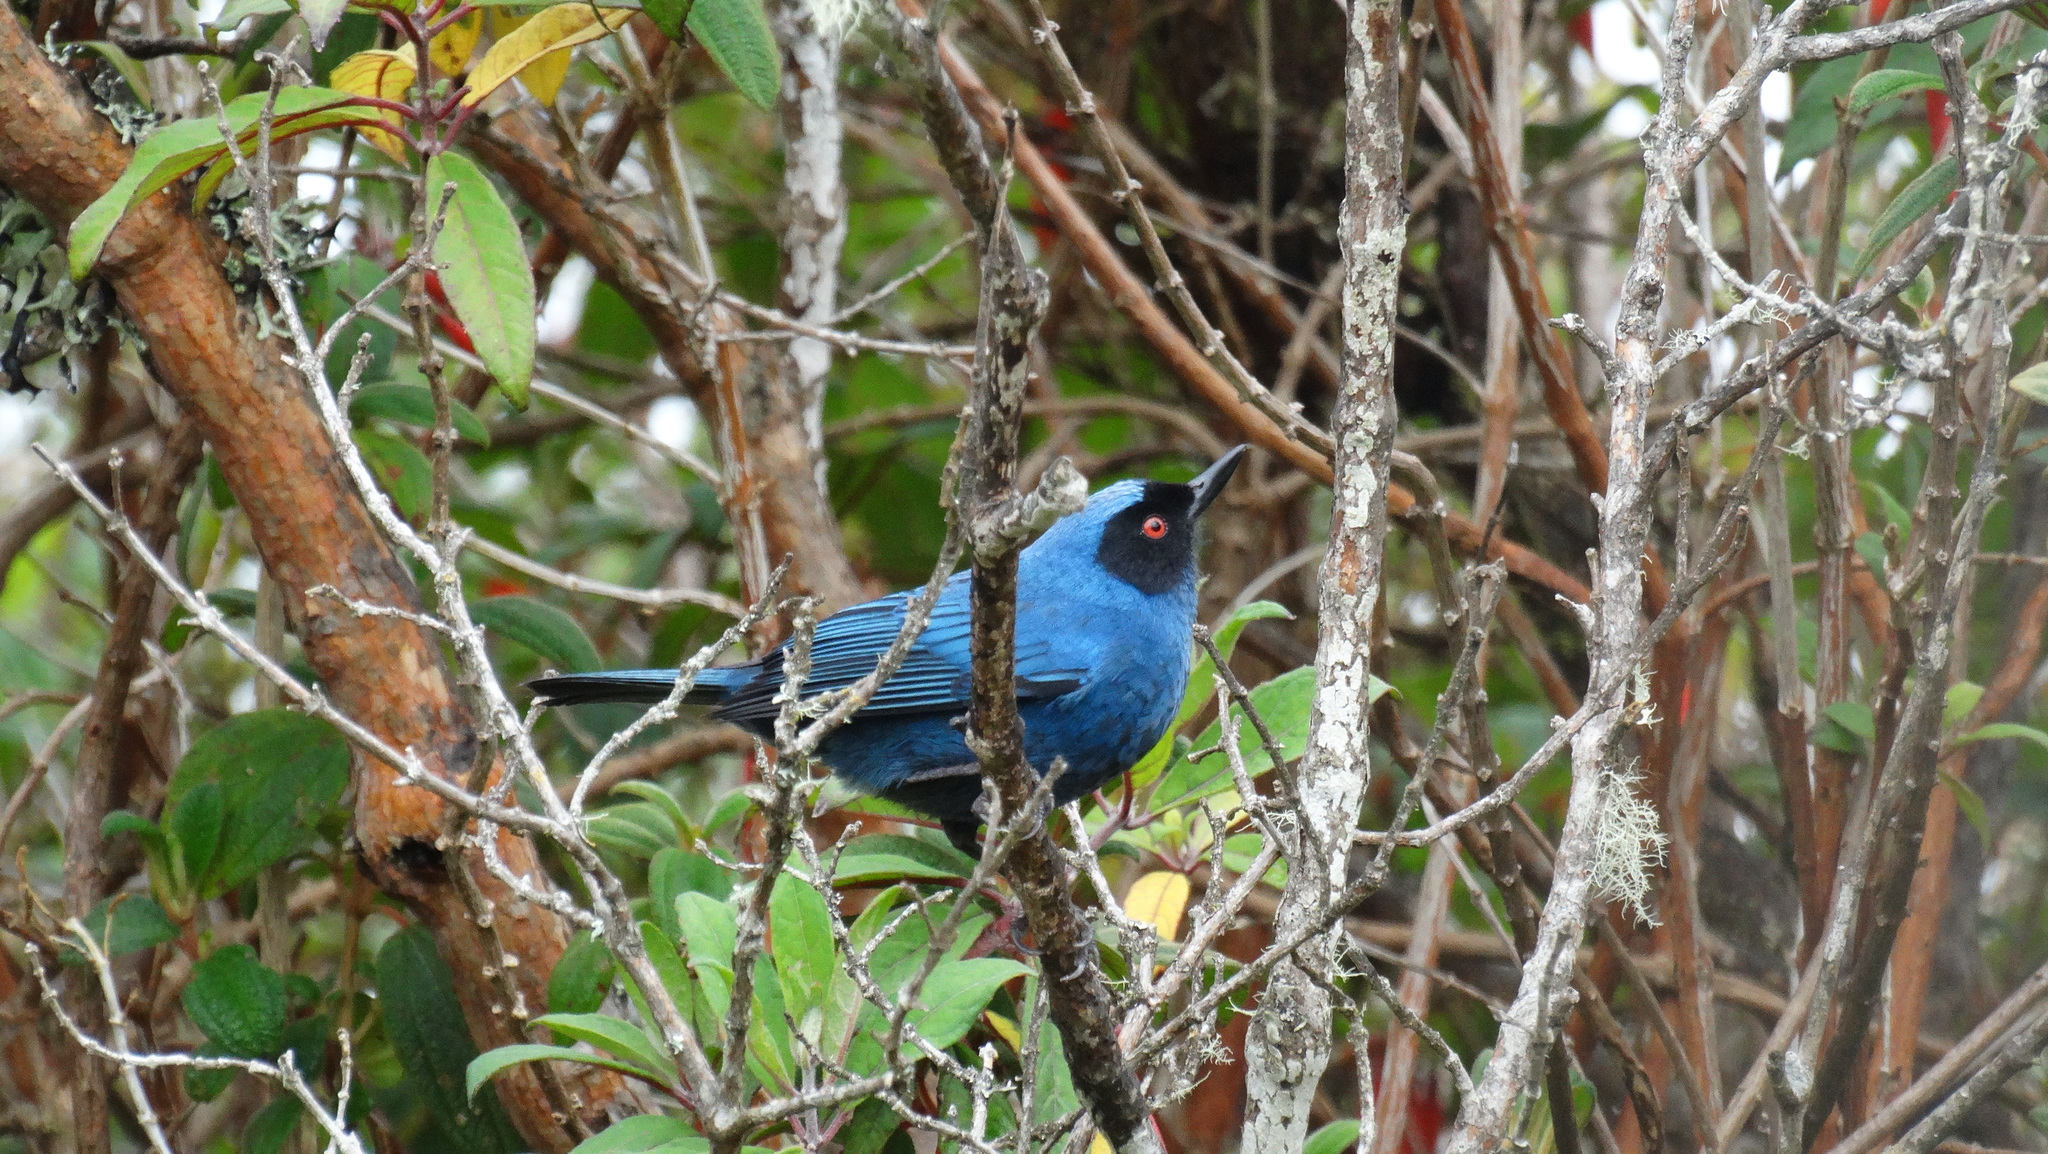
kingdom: Animalia
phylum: Chordata
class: Aves
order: Passeriformes
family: Thraupidae
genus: Diglossa
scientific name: Diglossa cyanea
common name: Masked flowerpiercer
